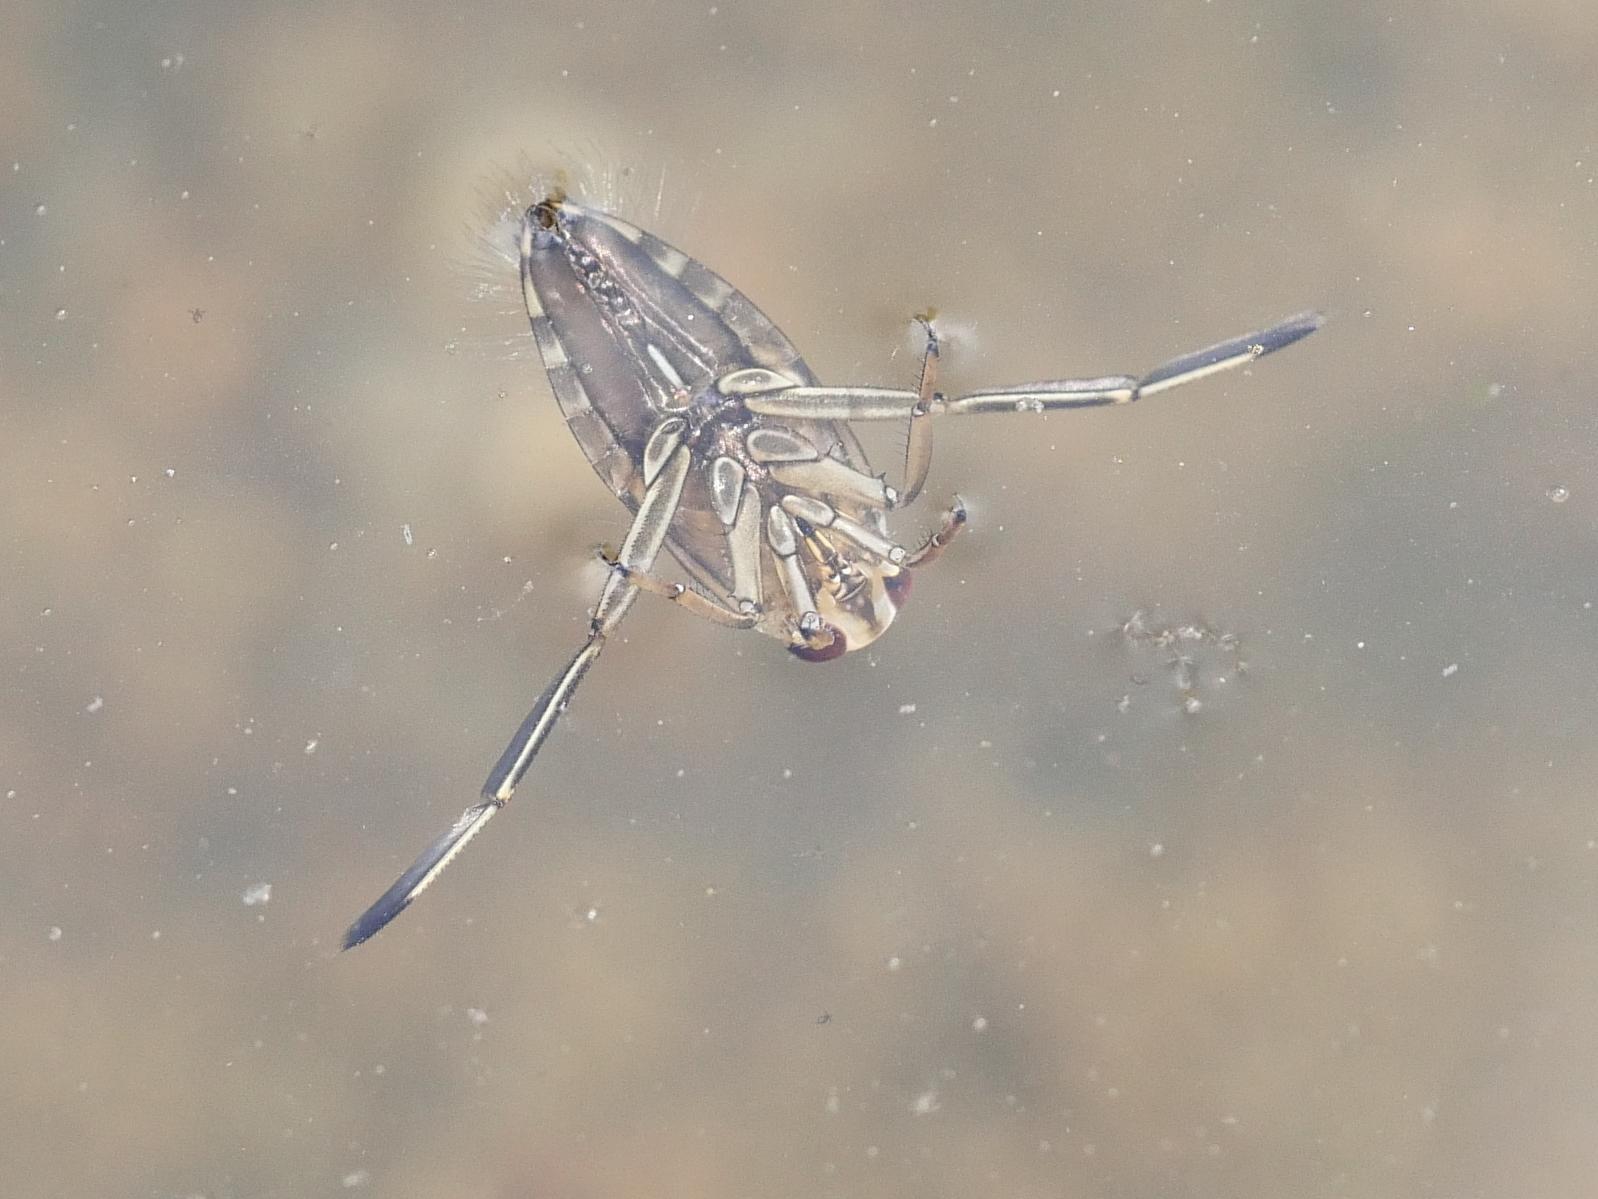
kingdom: Animalia
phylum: Arthropoda
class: Insecta
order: Hemiptera
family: Notonectidae
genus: Notonecta
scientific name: Notonecta
